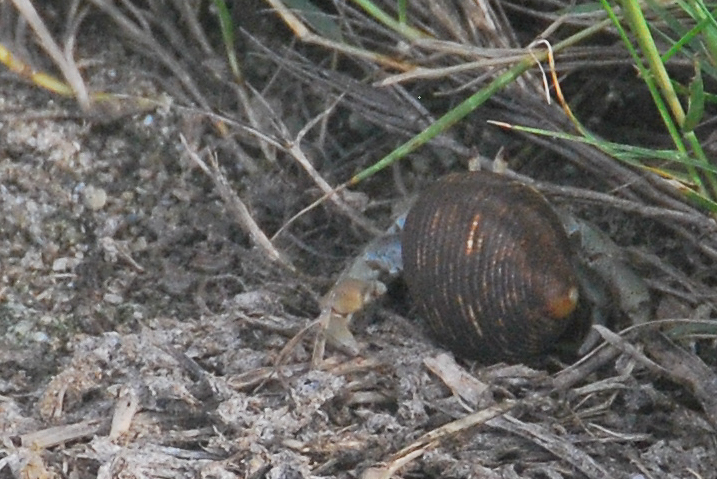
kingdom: Animalia
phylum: Arthropoda
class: Malacostraca
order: Decapoda
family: Coenobitidae
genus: Coenobita
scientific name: Coenobita compressus
